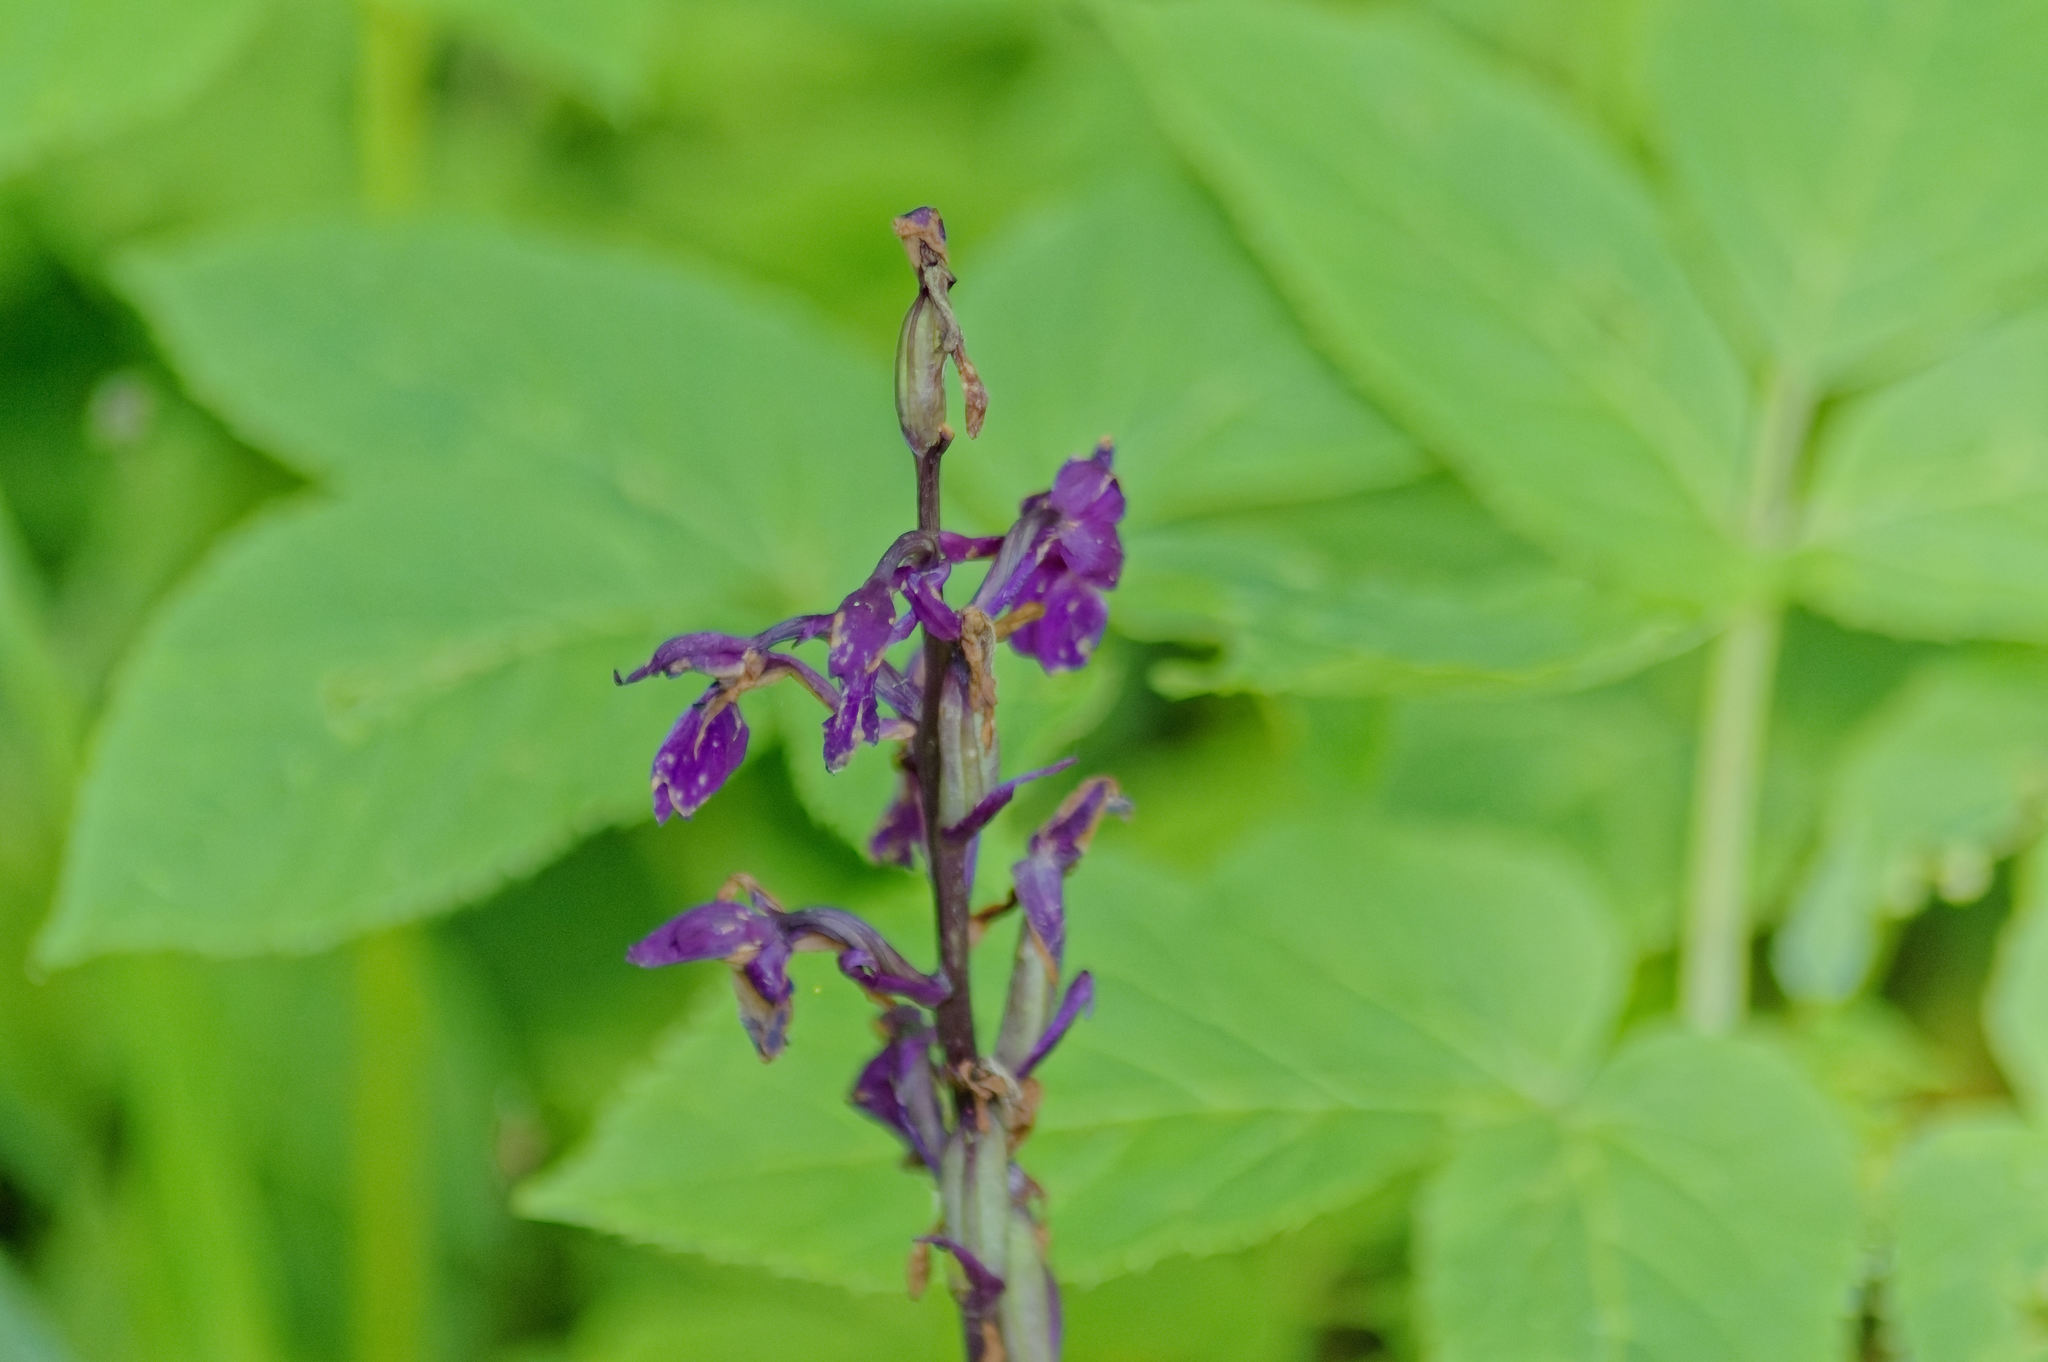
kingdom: Plantae
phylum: Tracheophyta
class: Liliopsida
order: Asparagales
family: Orchidaceae
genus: Orchis
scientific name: Orchis mascula
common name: Early-purple orchid
